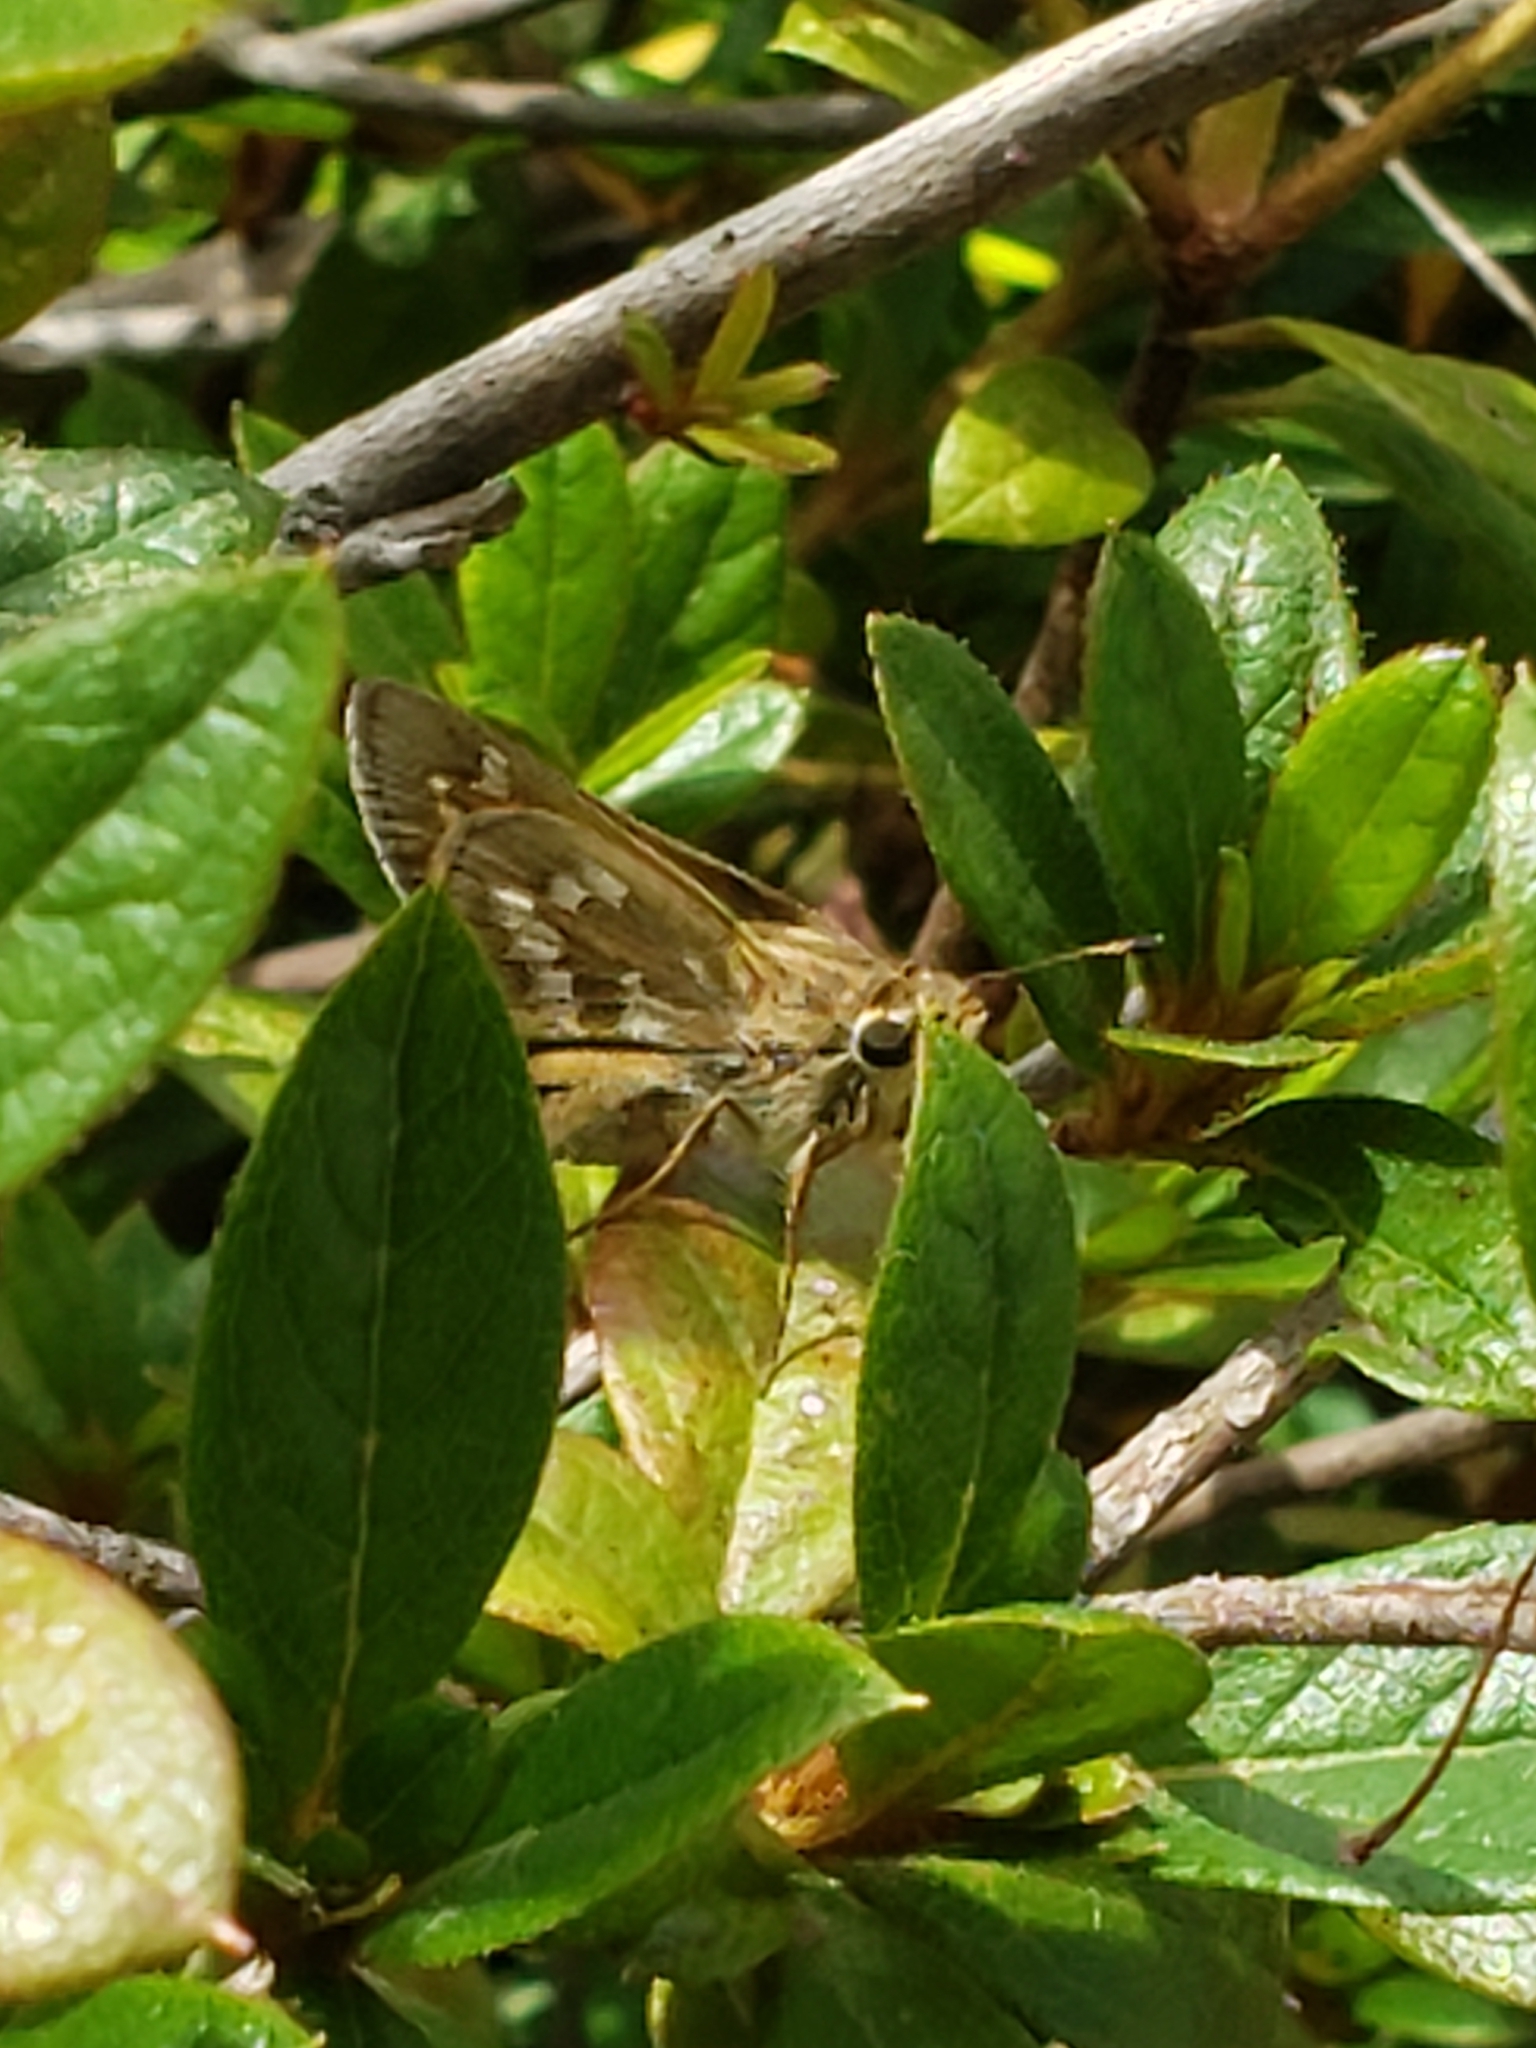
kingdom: Animalia
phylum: Arthropoda
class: Insecta
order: Lepidoptera
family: Hesperiidae
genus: Atalopedes
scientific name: Atalopedes
